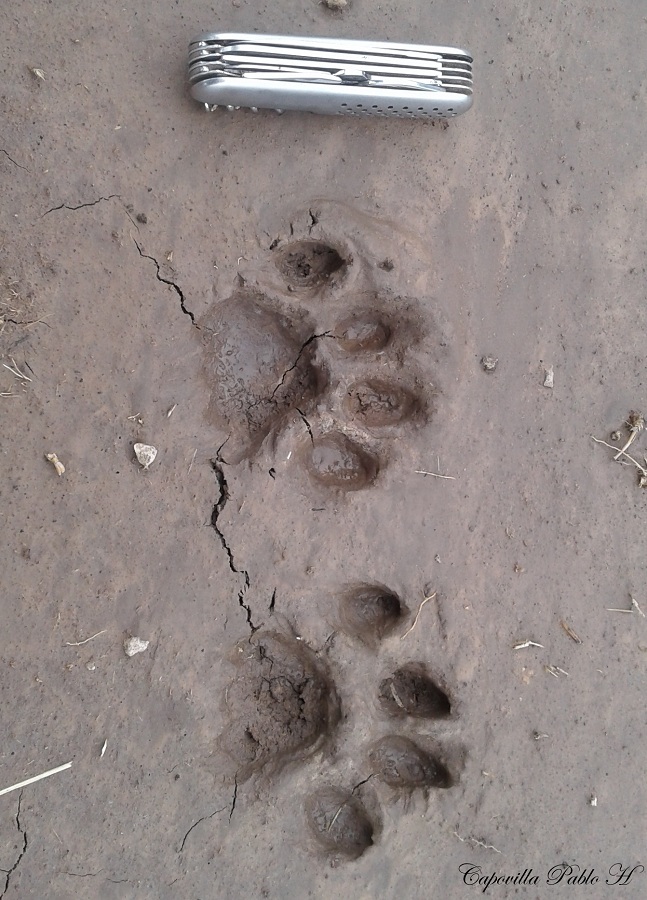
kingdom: Animalia
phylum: Chordata
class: Mammalia
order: Carnivora
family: Felidae
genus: Puma
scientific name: Puma concolor
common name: Puma
